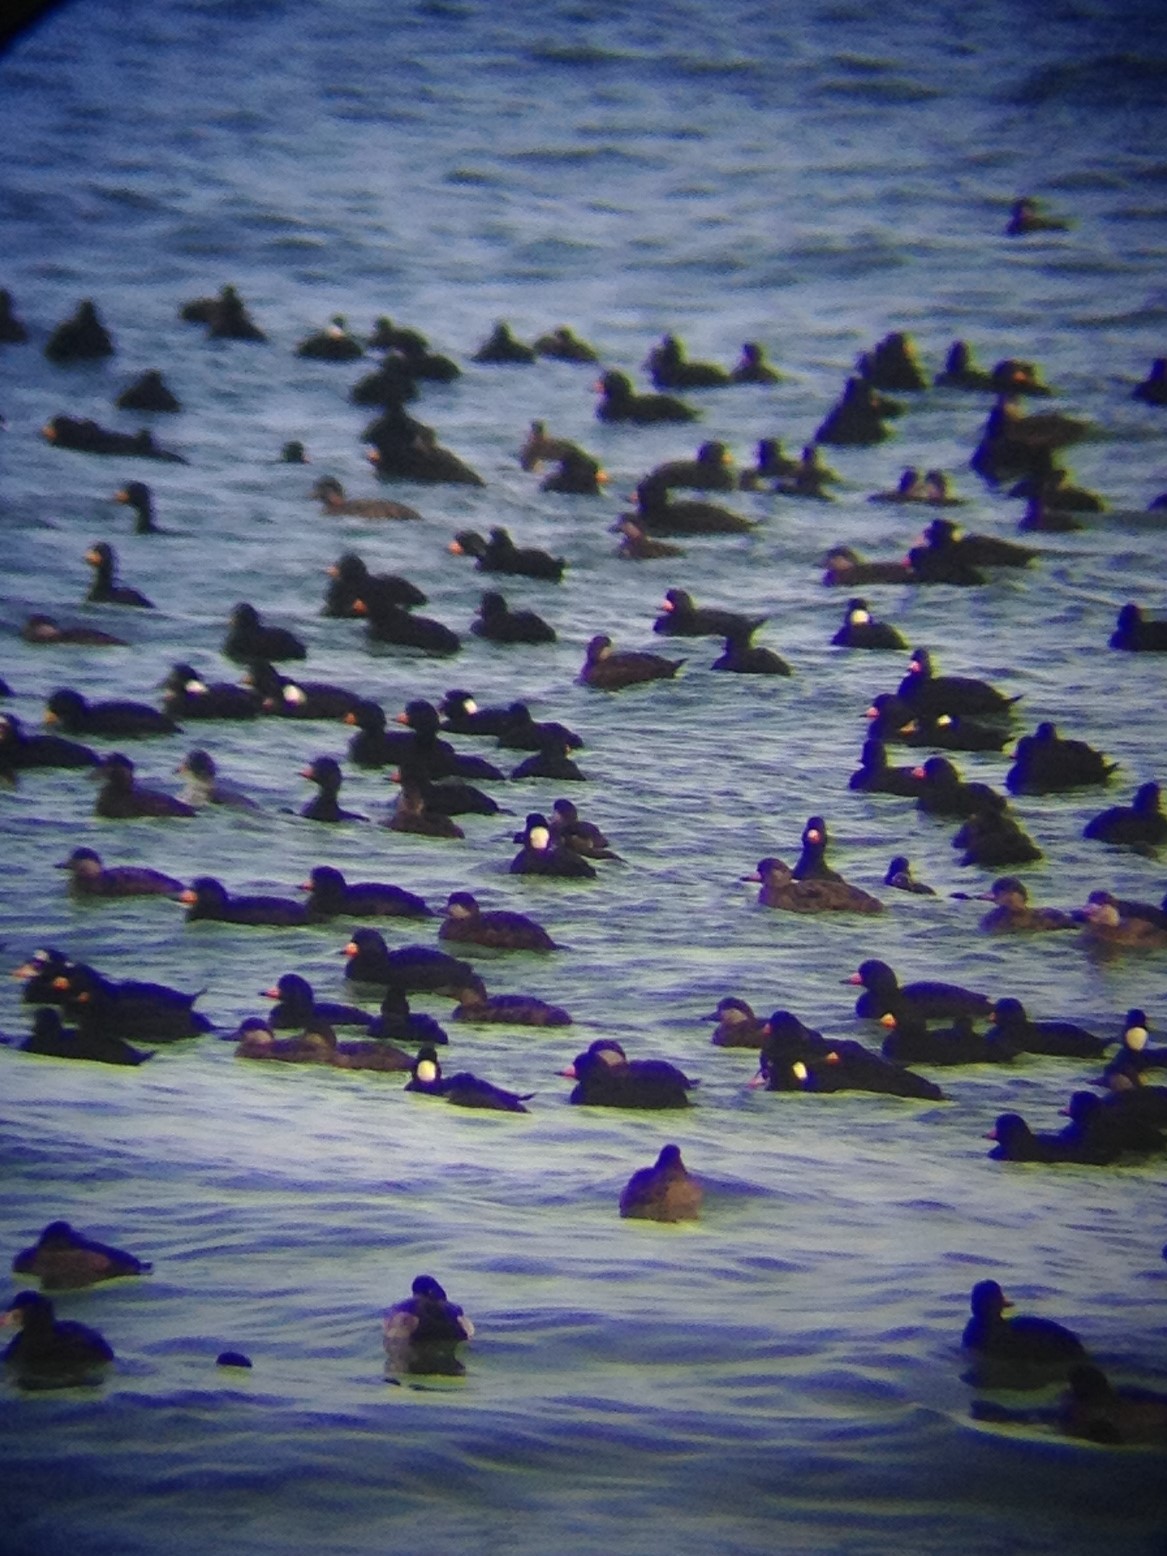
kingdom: Animalia
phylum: Chordata
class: Aves
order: Anseriformes
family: Anatidae
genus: Melanitta
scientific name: Melanitta americana
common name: Black scoter
